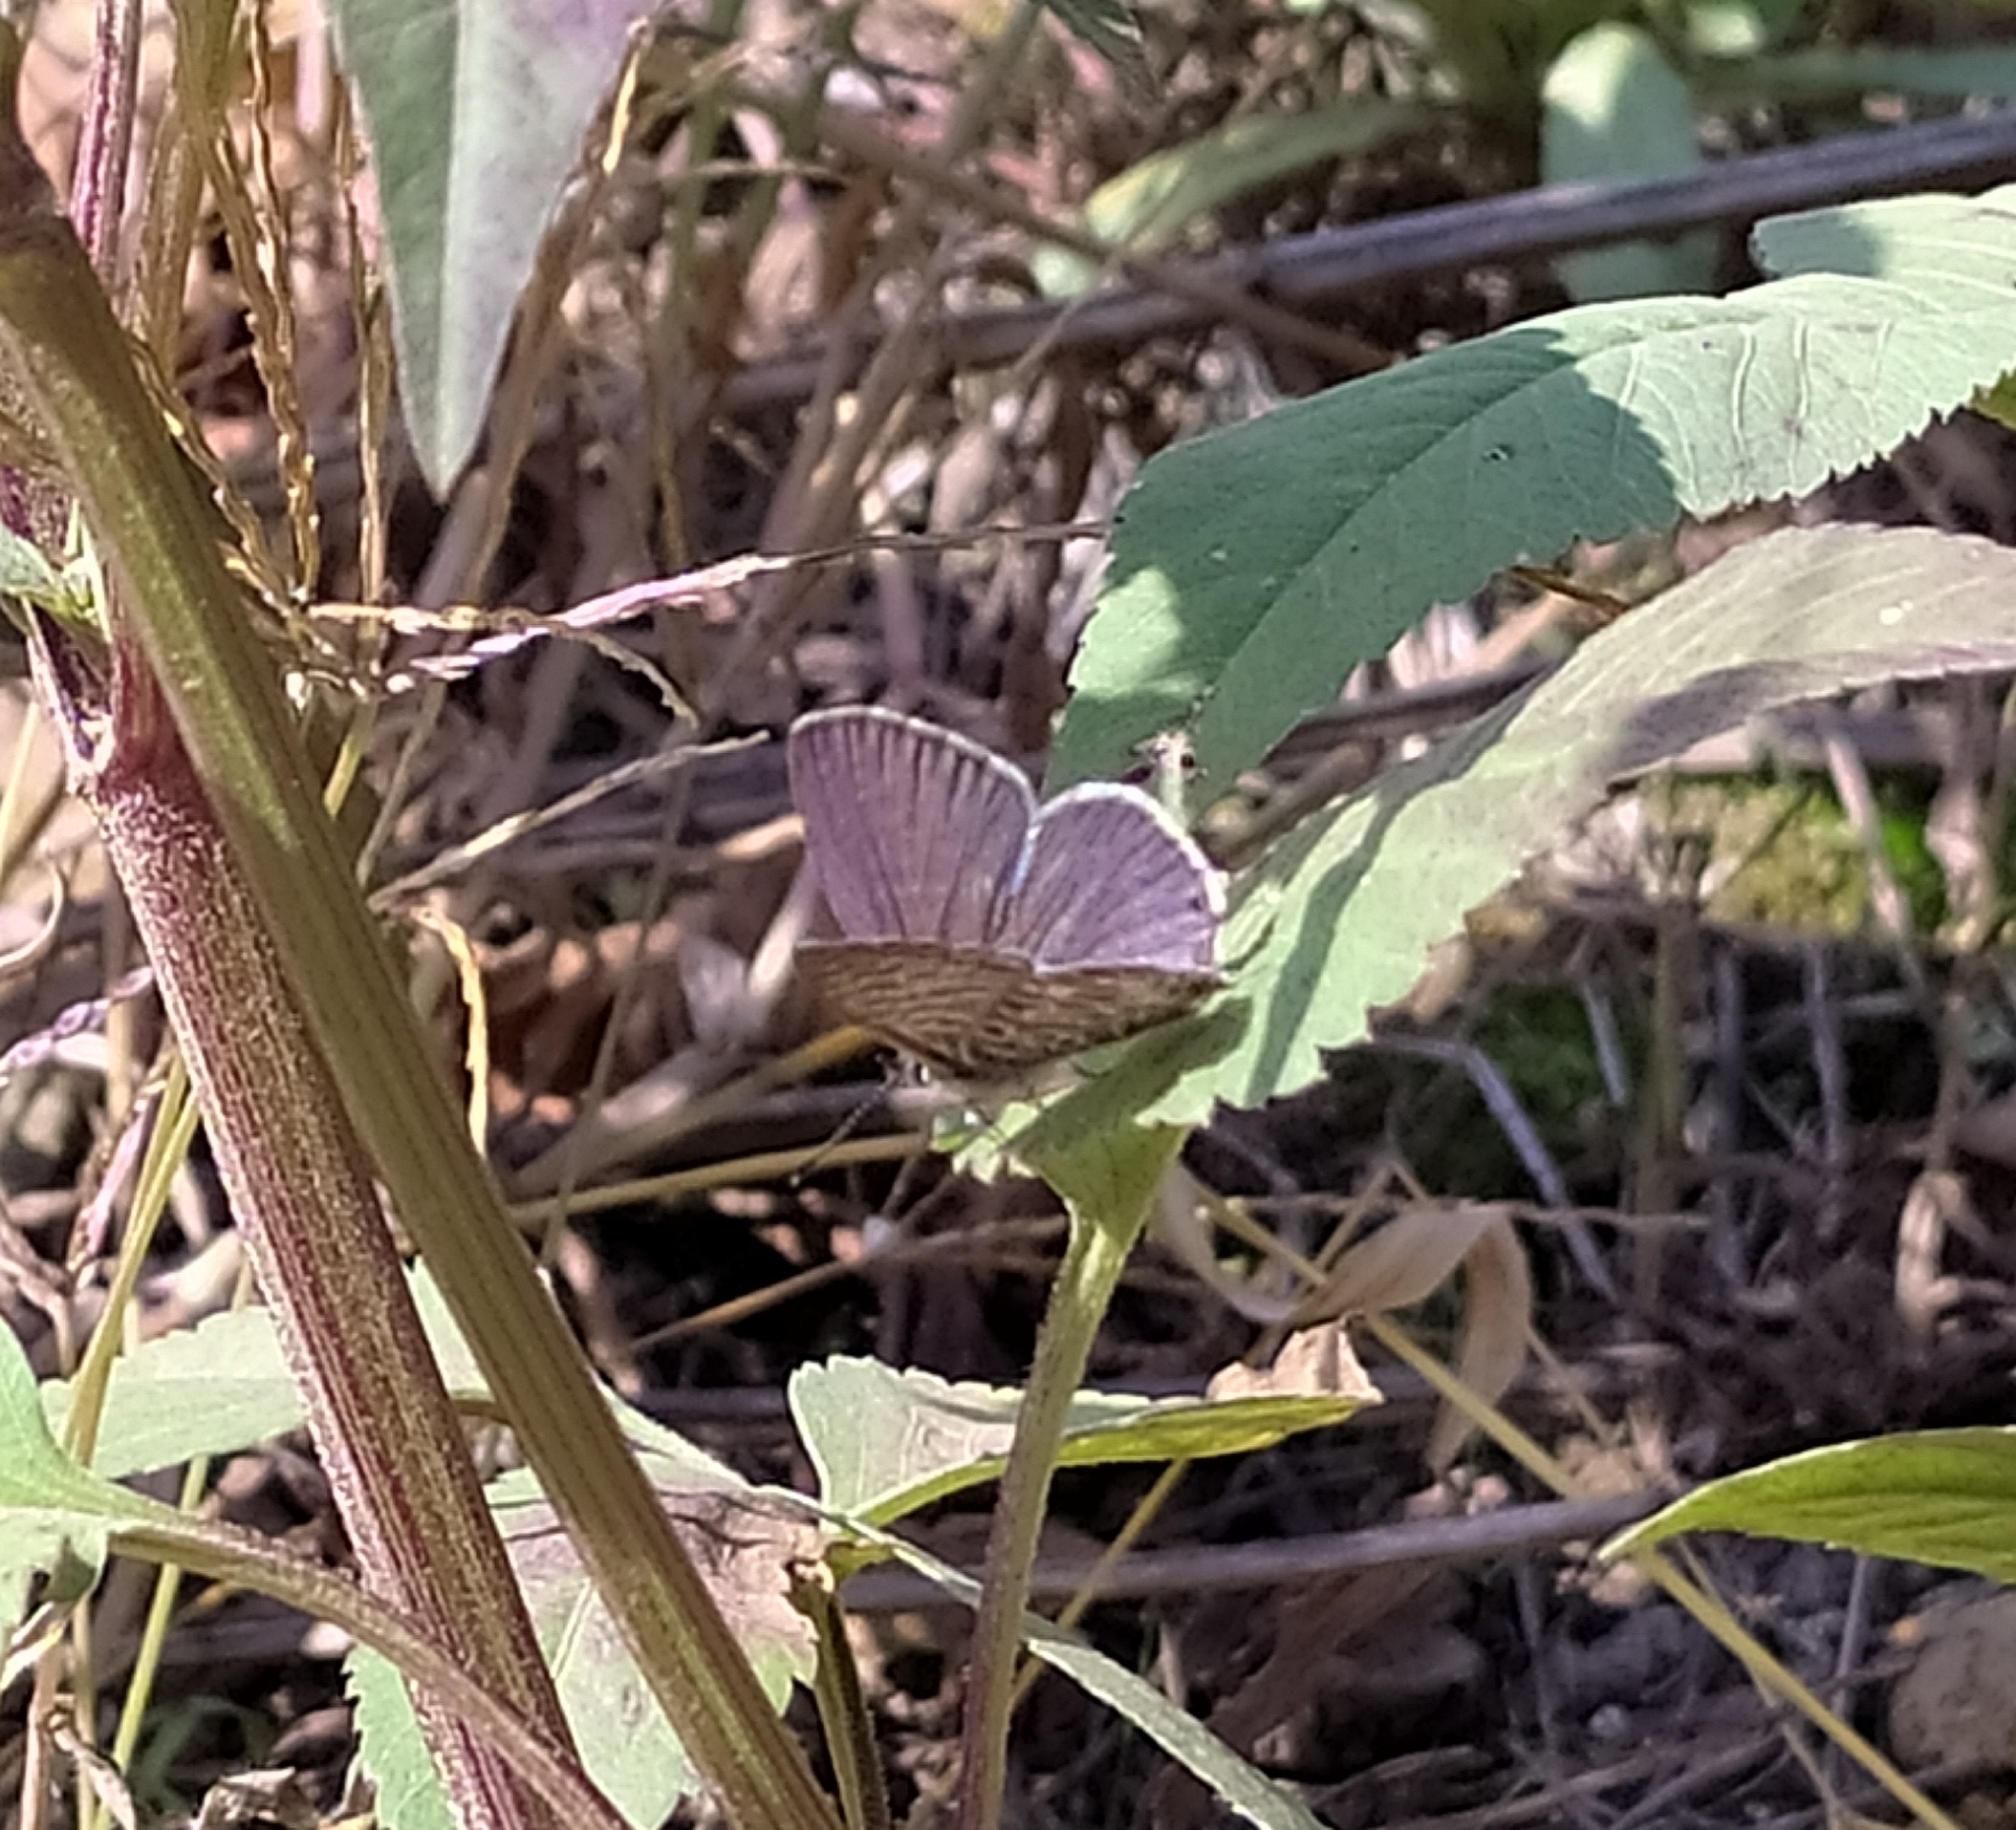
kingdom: Animalia
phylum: Arthropoda
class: Insecta
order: Lepidoptera
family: Lycaenidae
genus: Leptotes
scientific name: Leptotes pirithous
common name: Lang's short-tailed blue
